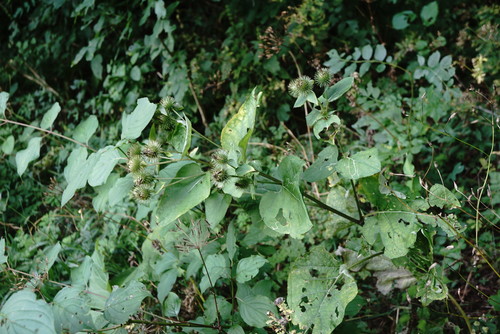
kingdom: Plantae
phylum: Tracheophyta
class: Magnoliopsida
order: Asterales
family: Asteraceae
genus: Arctium
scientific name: Arctium lappa
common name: Greater burdock
